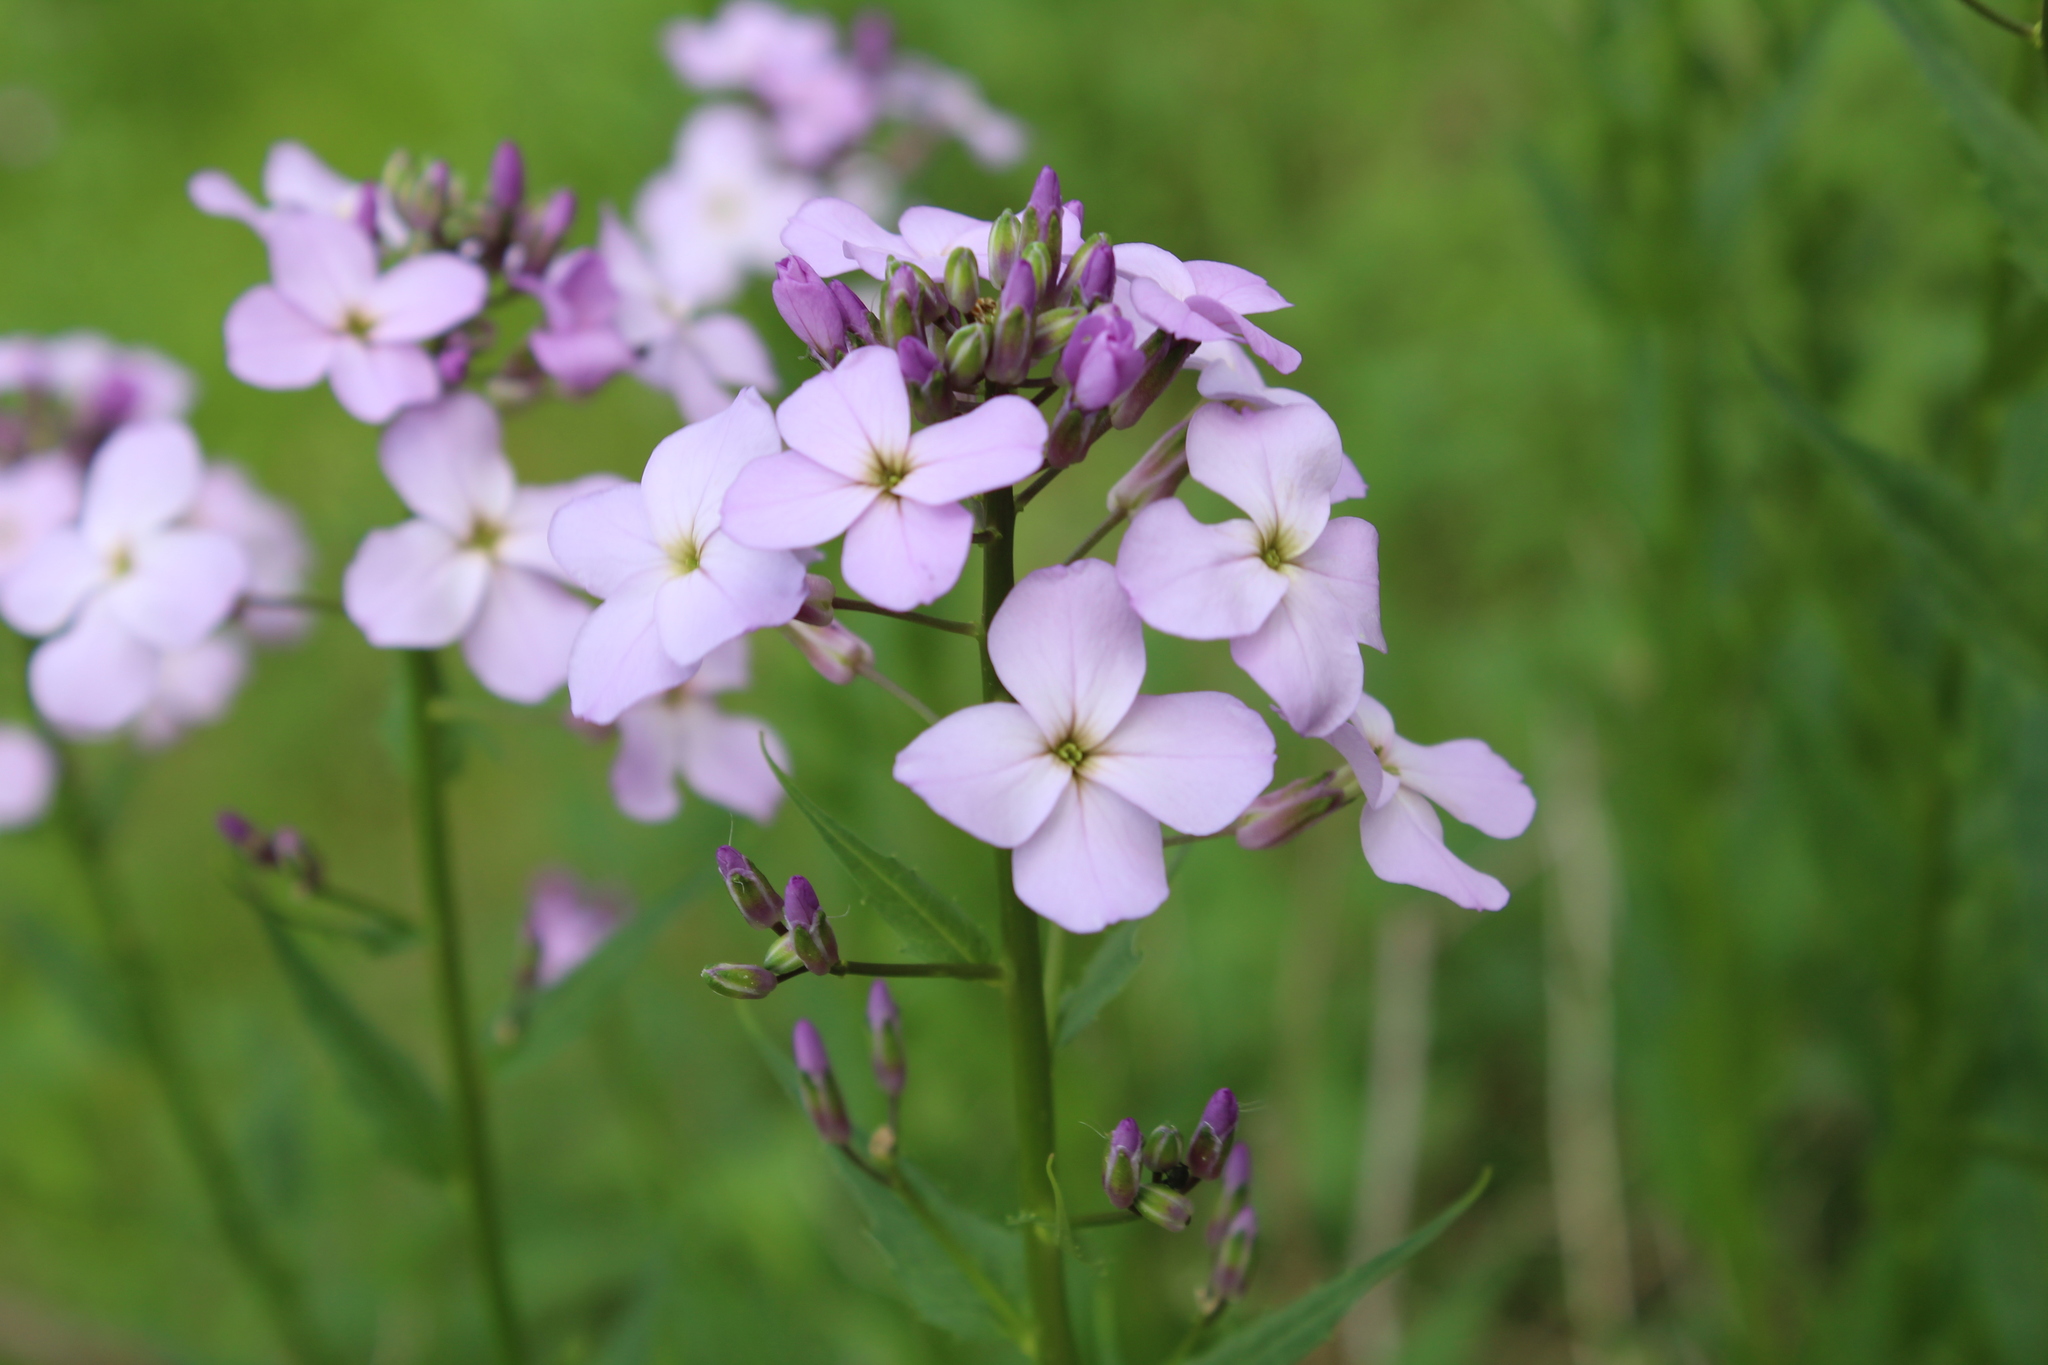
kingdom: Plantae
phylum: Tracheophyta
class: Magnoliopsida
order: Brassicales
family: Brassicaceae
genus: Hesperis
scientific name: Hesperis matronalis
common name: Dame's-violet
